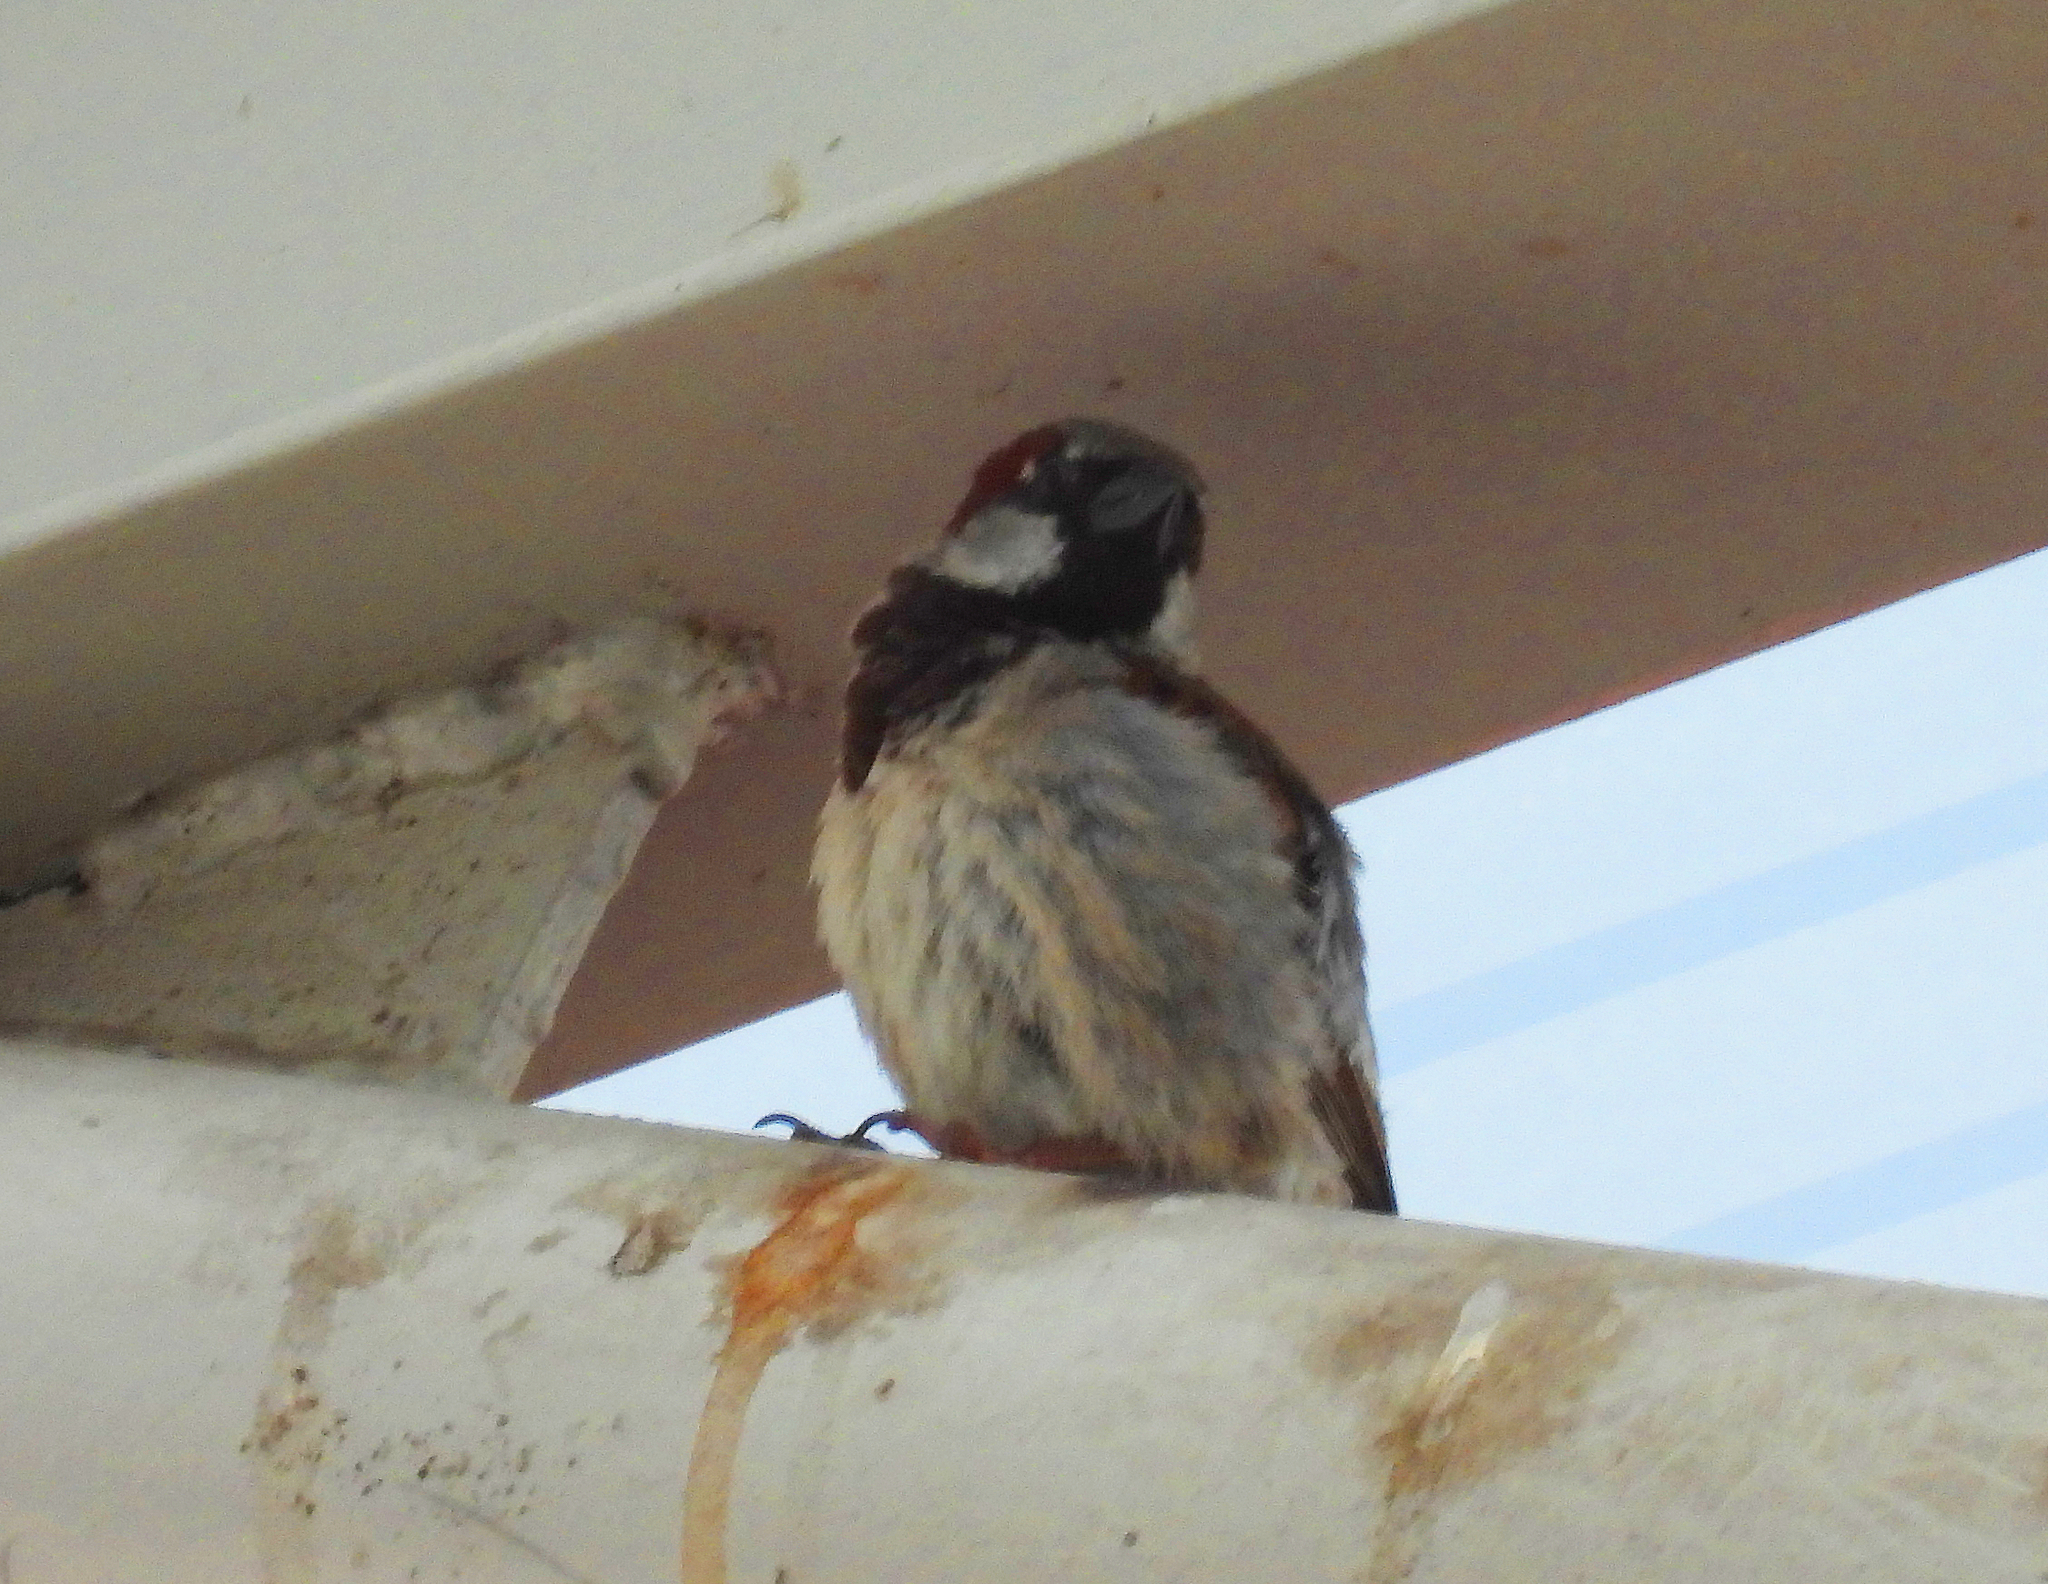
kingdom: Animalia
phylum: Chordata
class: Aves
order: Passeriformes
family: Passeridae
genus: Passer
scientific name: Passer domesticus
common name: House sparrow
